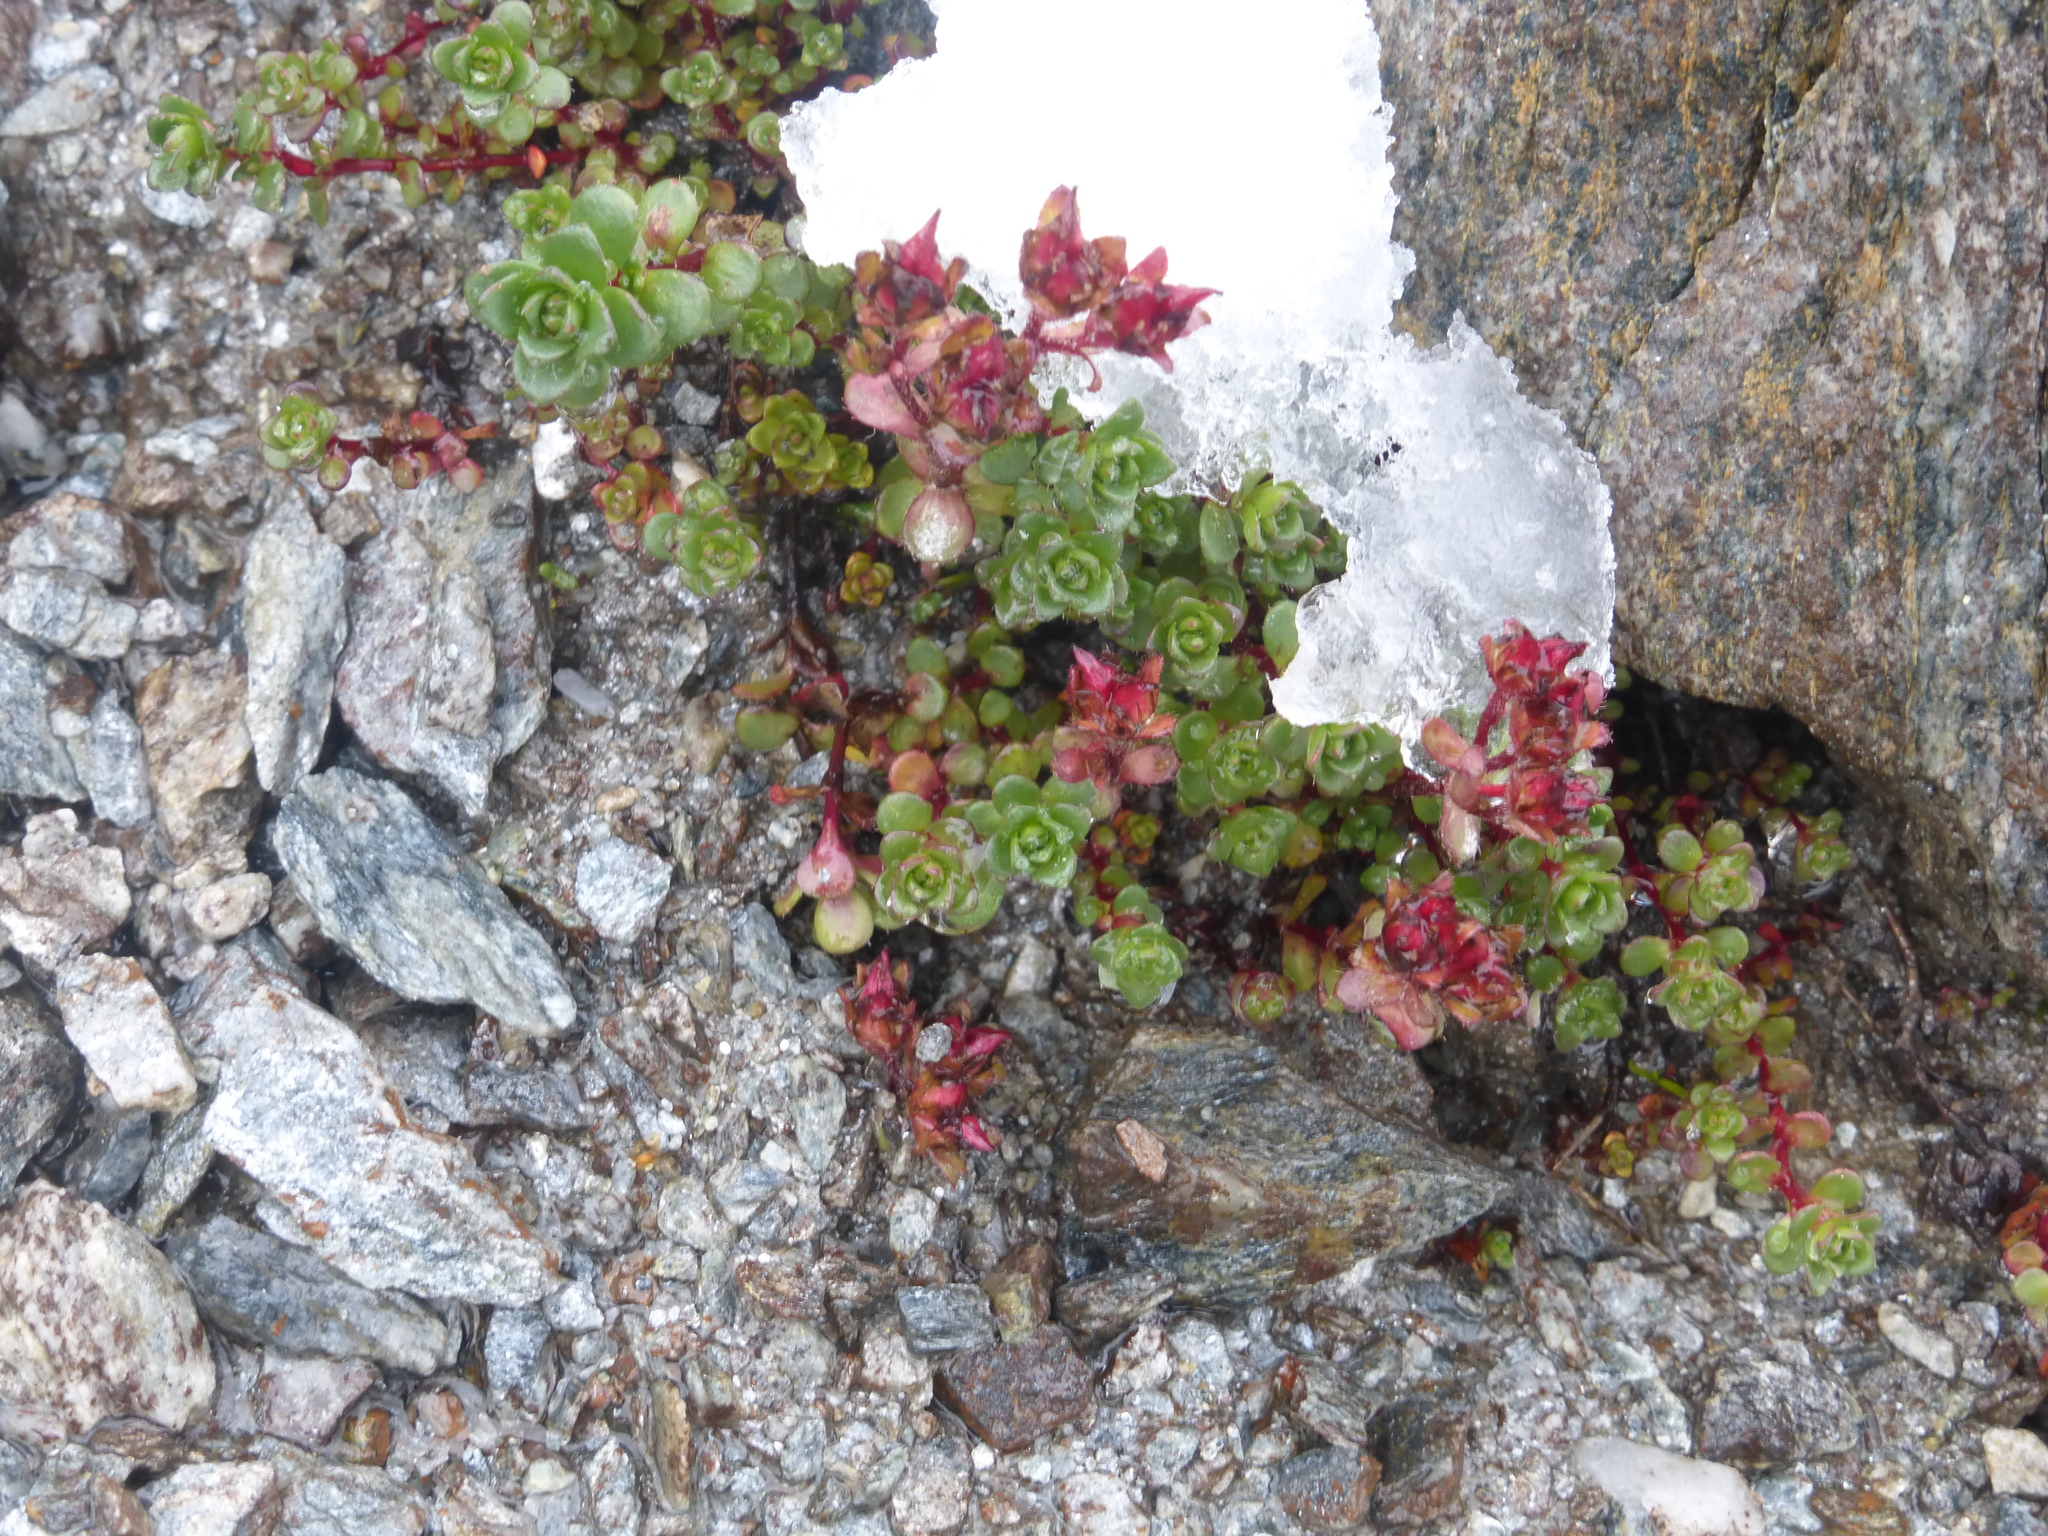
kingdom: Plantae
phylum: Tracheophyta
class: Magnoliopsida
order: Saxifragales
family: Saxifragaceae
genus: Saxifraga
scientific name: Saxifraga biflora
